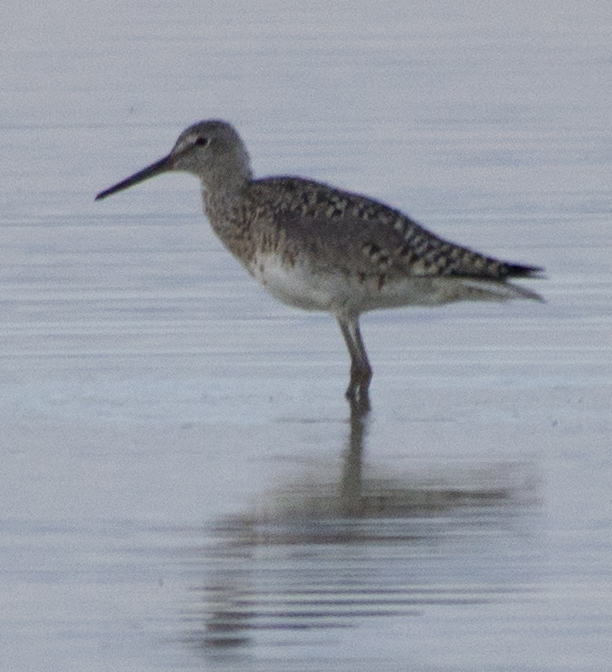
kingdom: Animalia
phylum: Chordata
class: Aves
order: Charadriiformes
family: Scolopacidae
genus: Tringa
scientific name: Tringa semipalmata
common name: Willet
